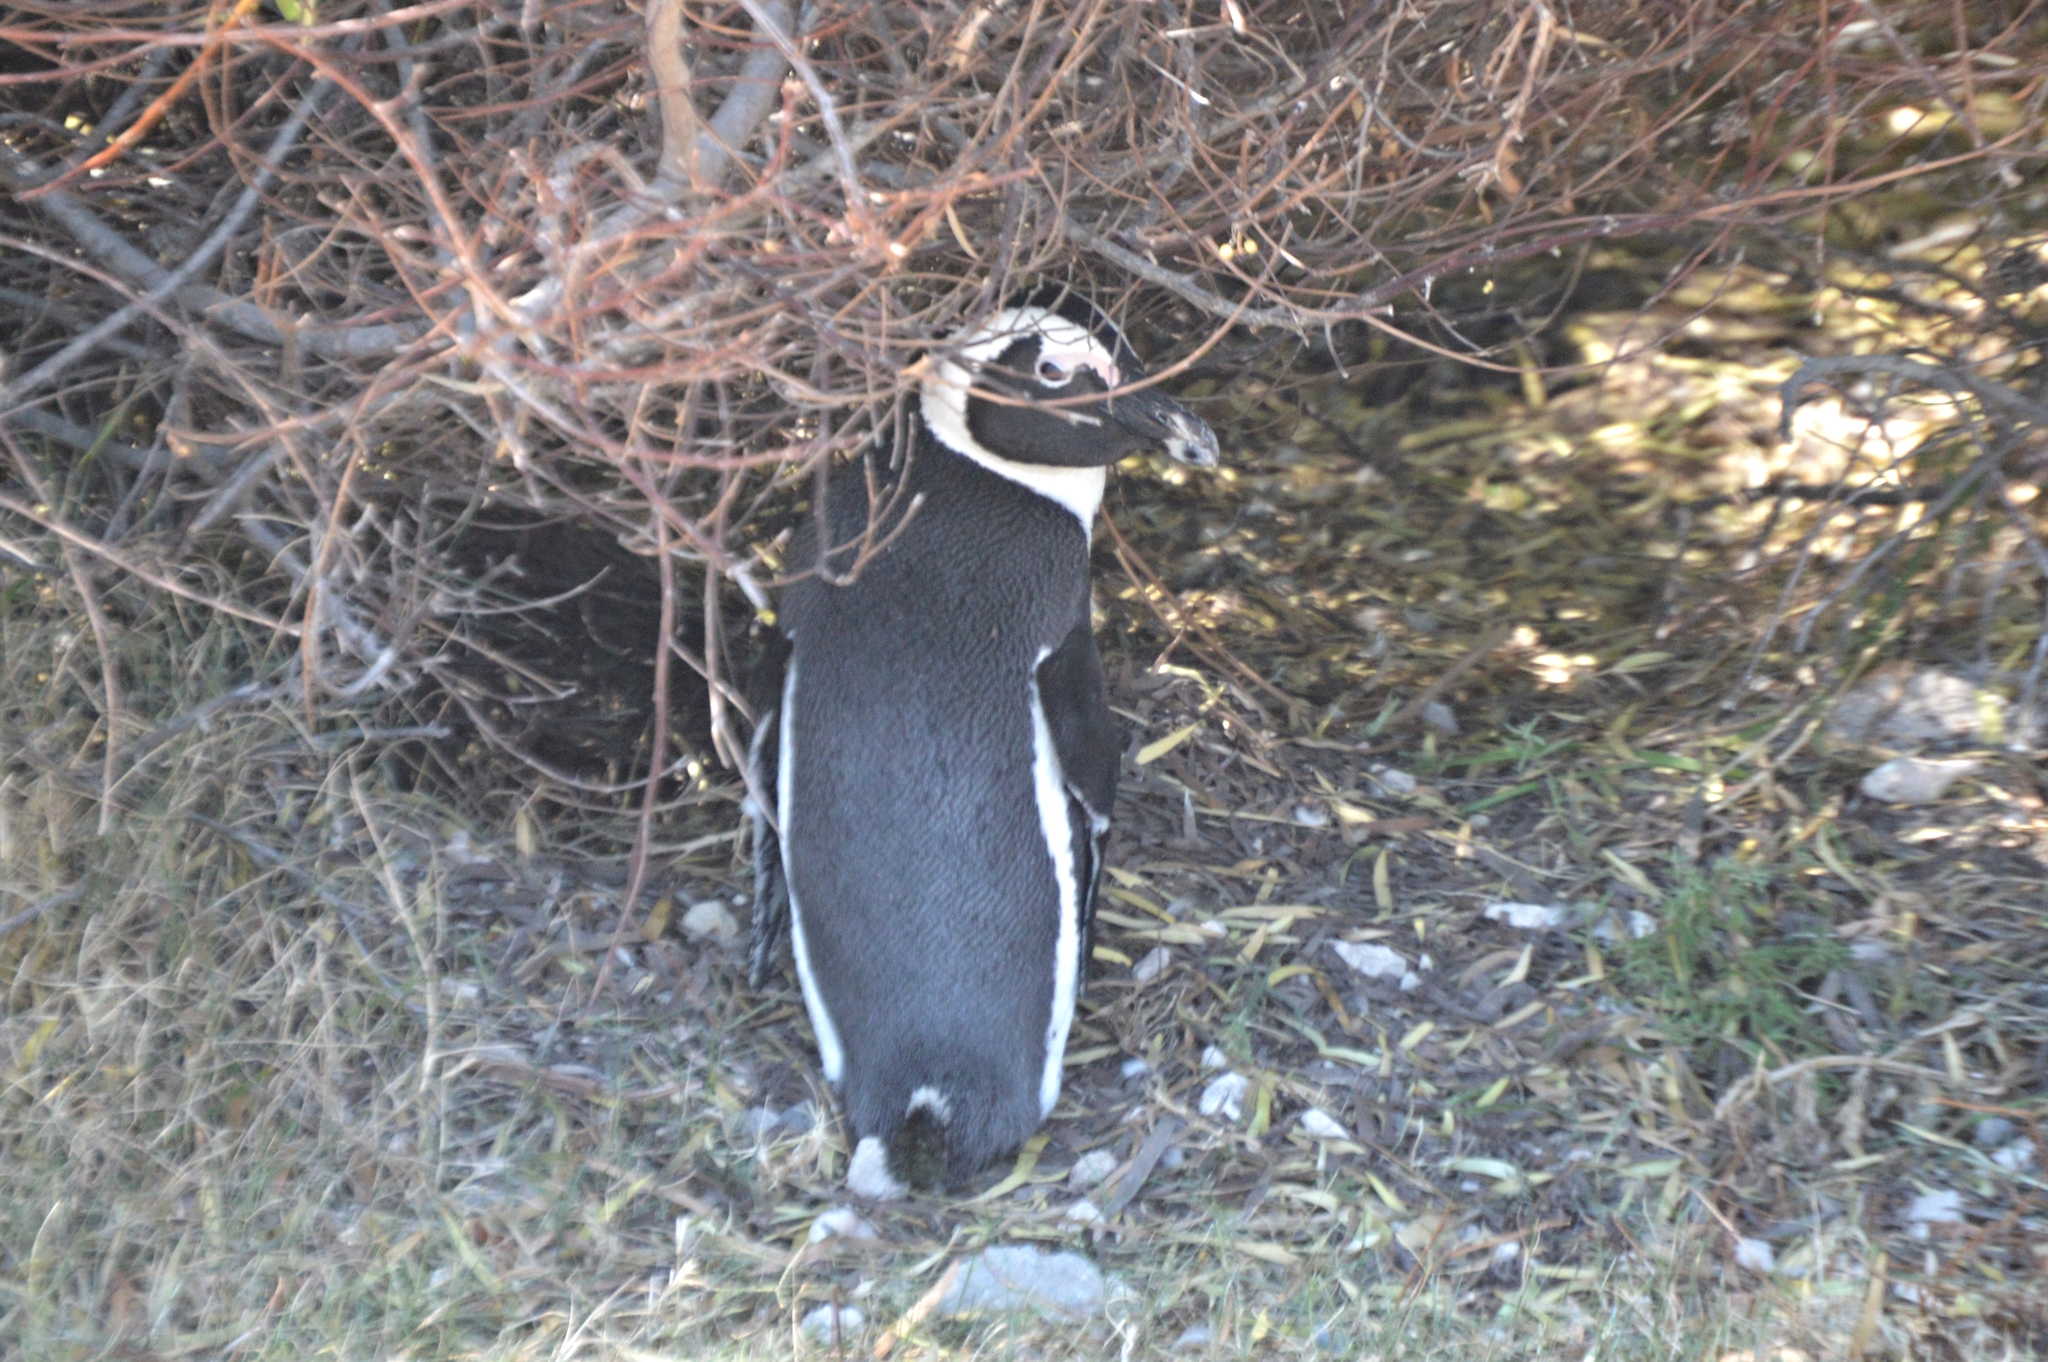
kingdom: Animalia
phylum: Chordata
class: Aves
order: Sphenisciformes
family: Spheniscidae
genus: Spheniscus
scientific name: Spheniscus demersus
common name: African penguin
